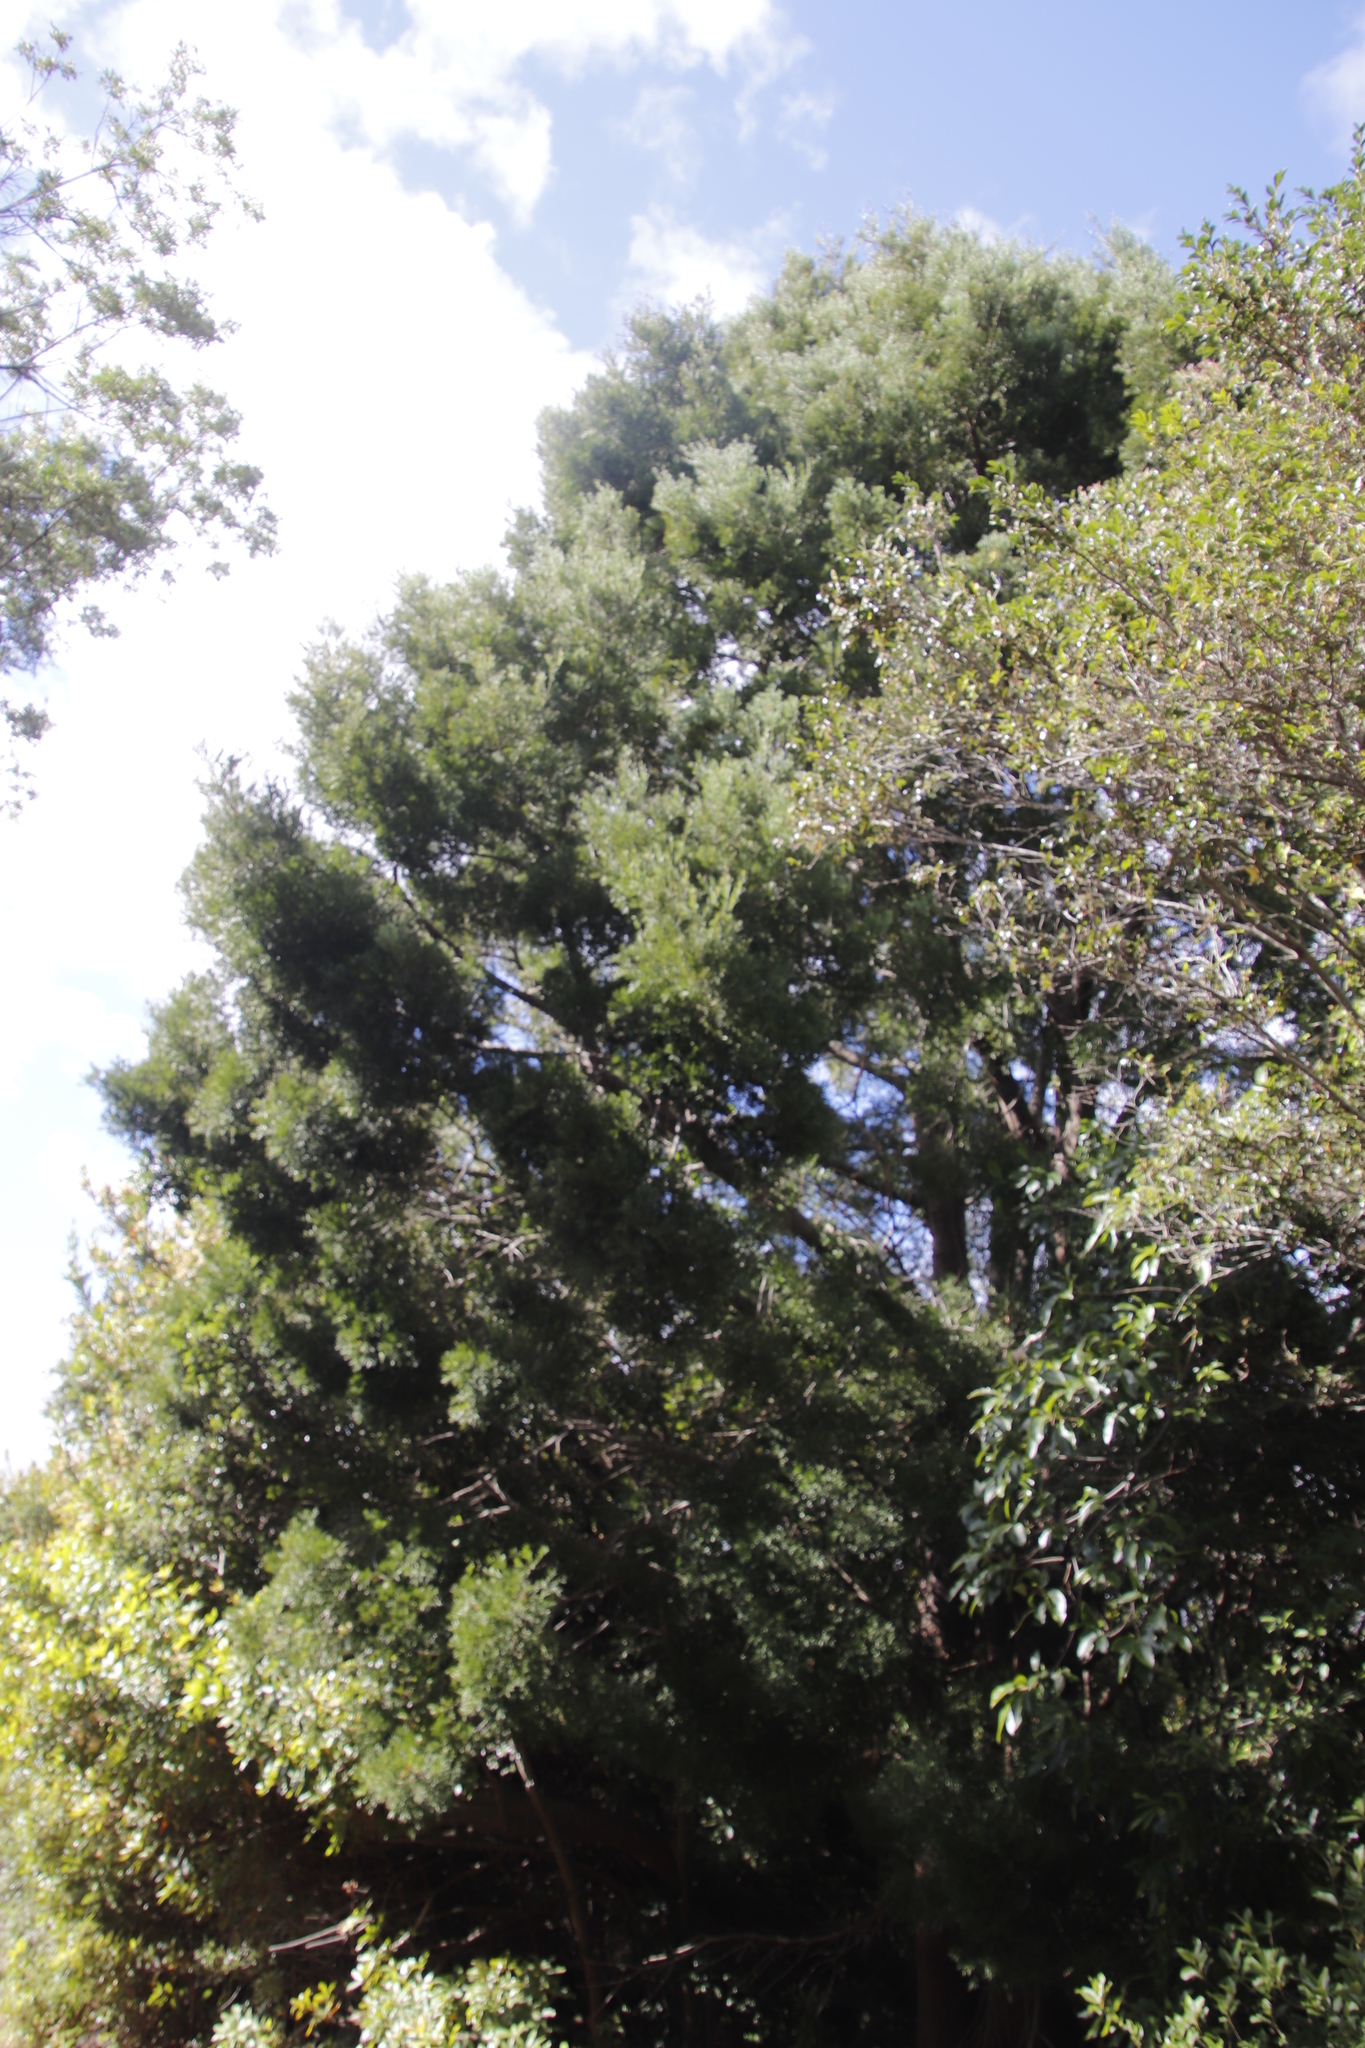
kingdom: Plantae
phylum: Tracheophyta
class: Pinopsida
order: Pinales
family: Podocarpaceae
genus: Afrocarpus
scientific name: Afrocarpus falcatus
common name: Bastard yellowwood
